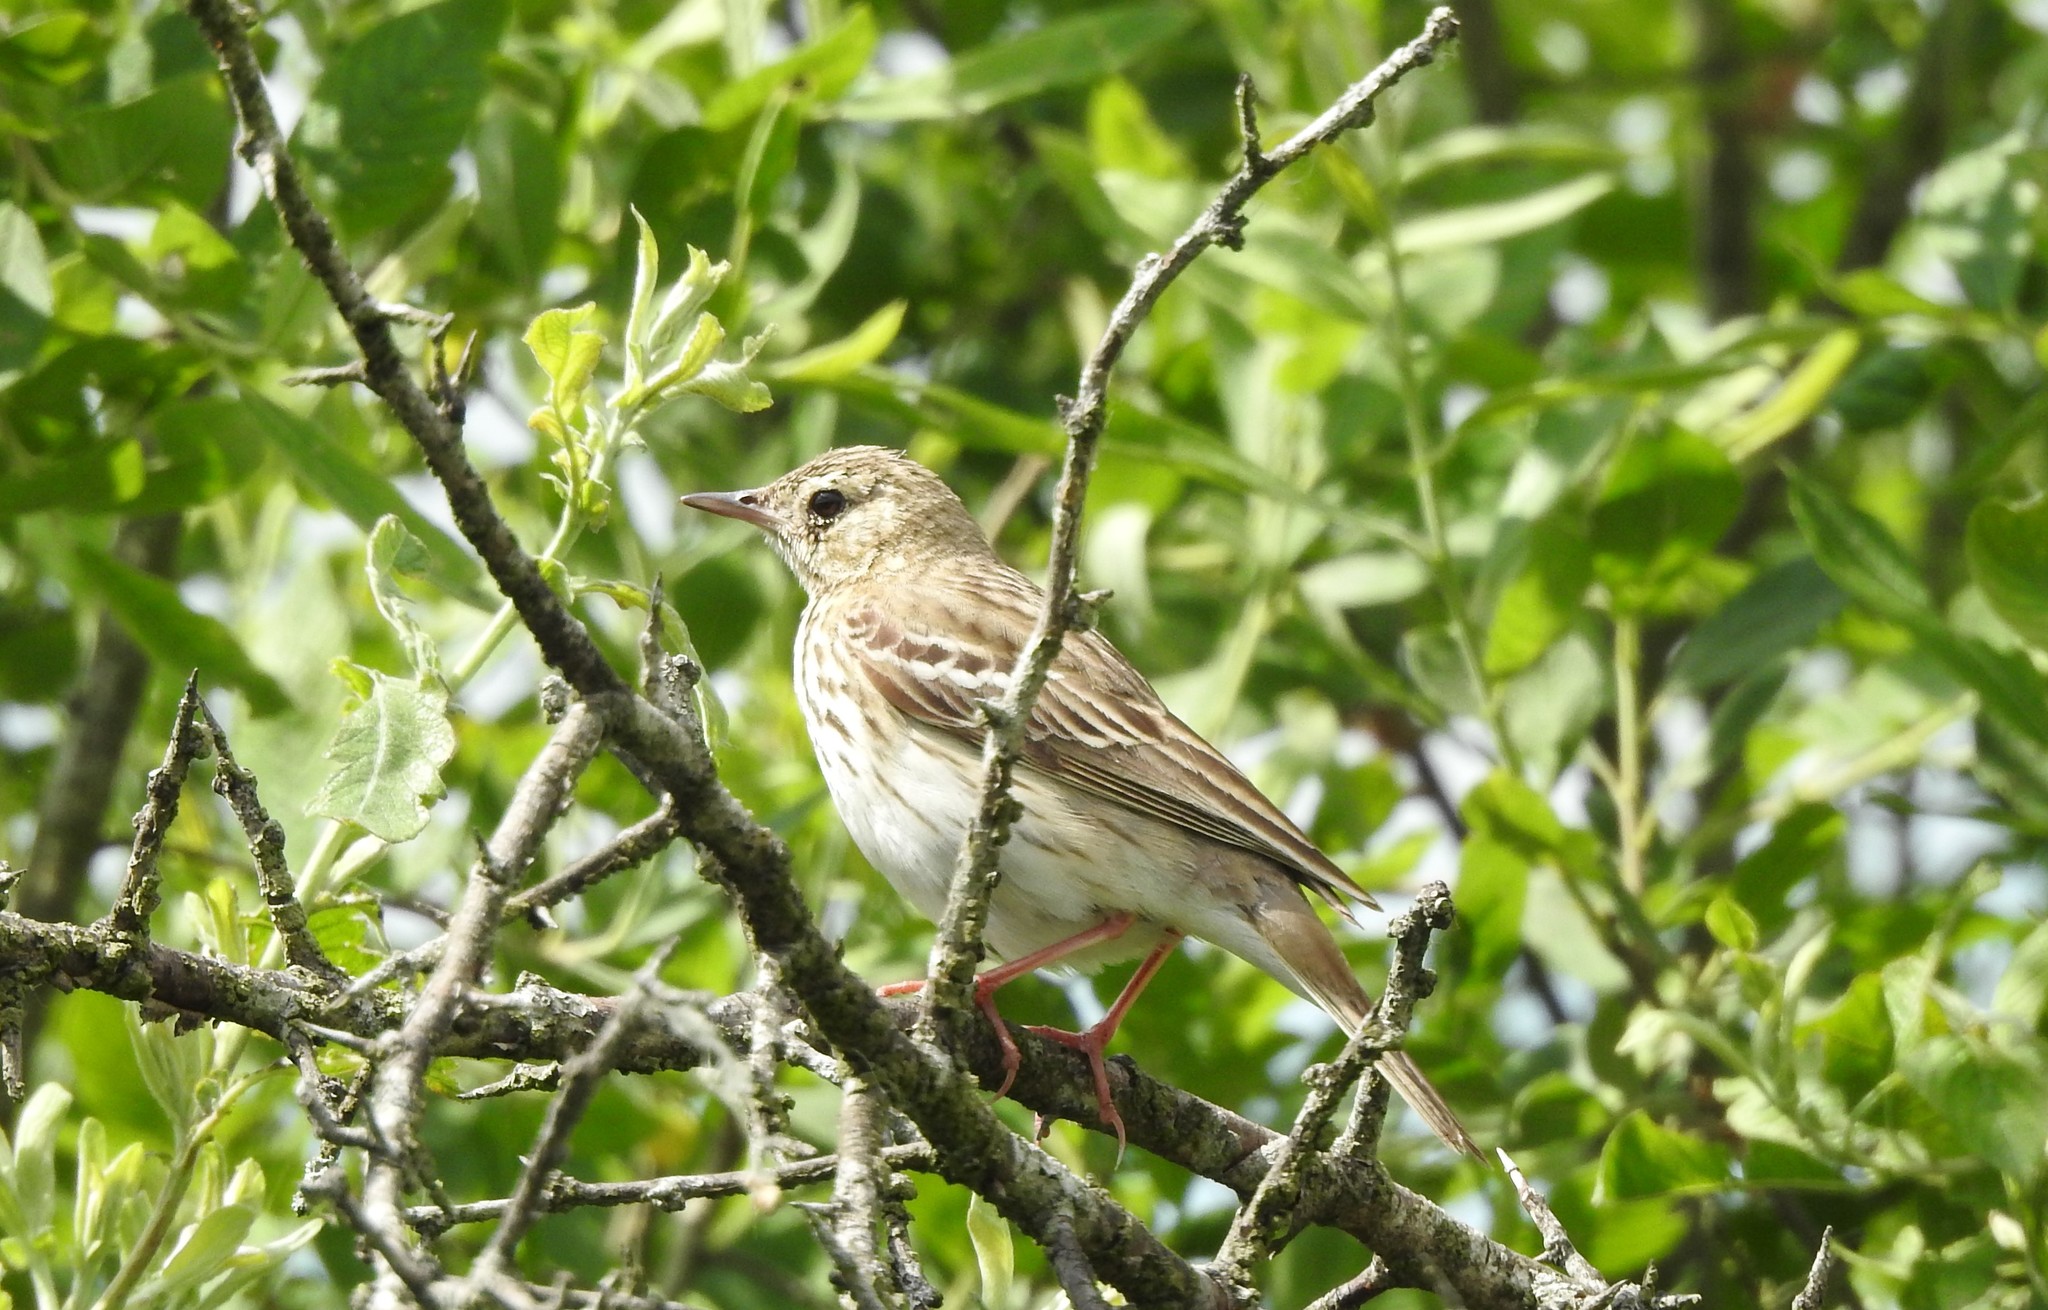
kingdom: Animalia
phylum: Chordata
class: Aves
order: Passeriformes
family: Motacillidae
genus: Anthus
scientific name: Anthus trivialis
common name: Tree pipit
